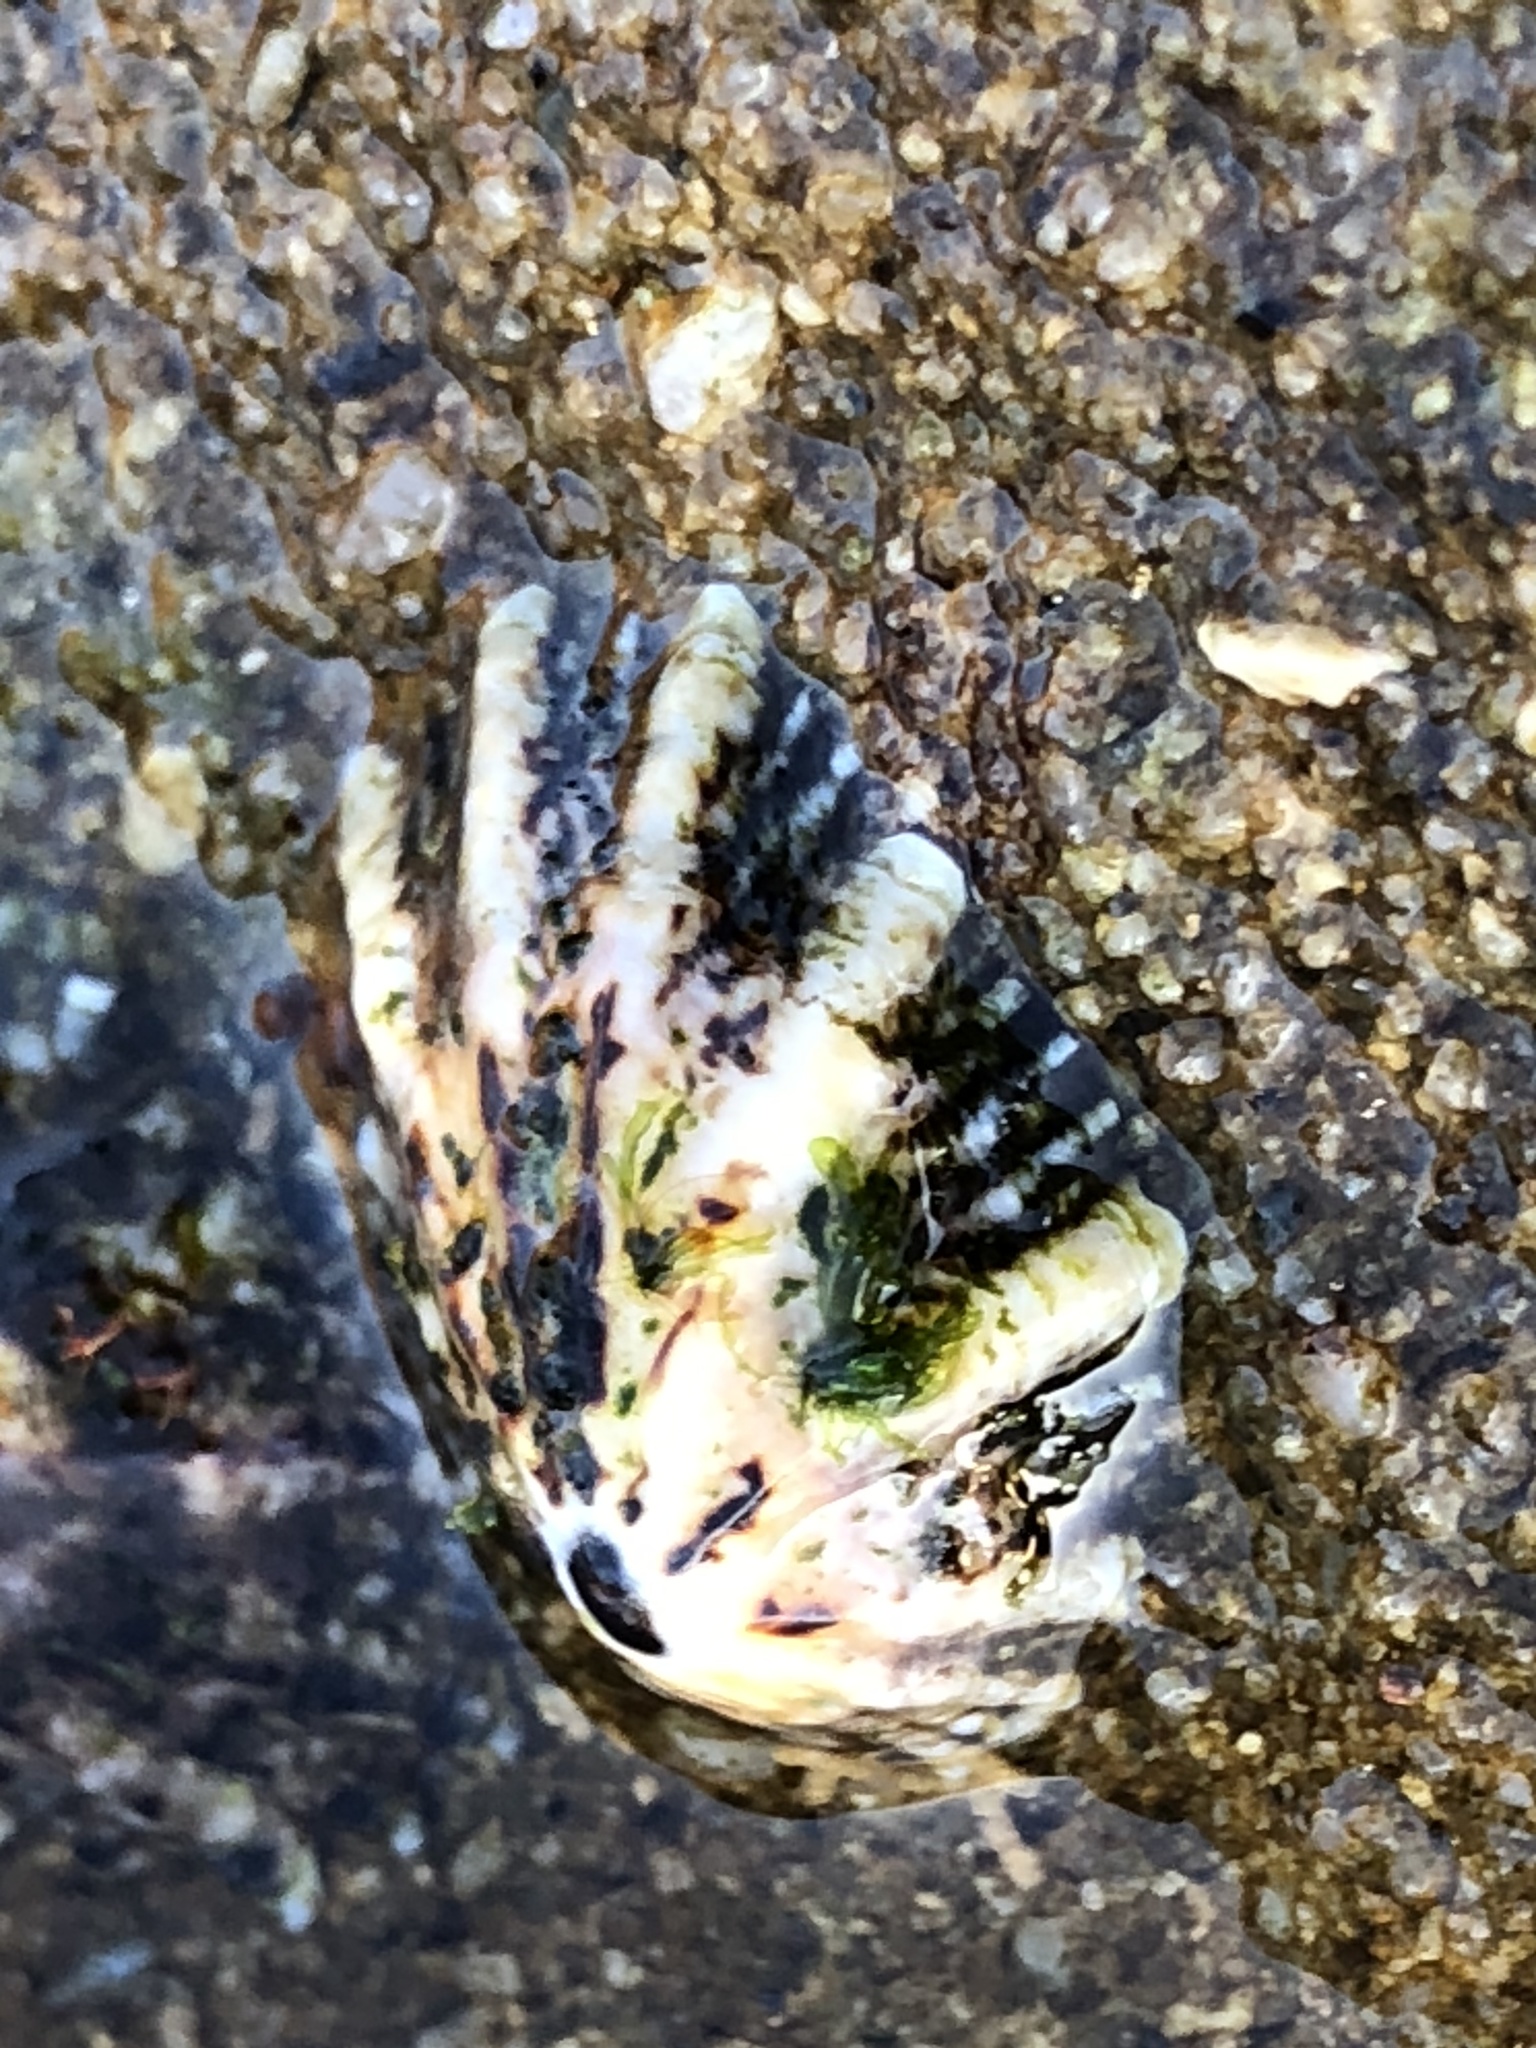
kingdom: Animalia
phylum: Mollusca
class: Gastropoda
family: Lottiidae
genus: Lottia
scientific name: Lottia scabra
